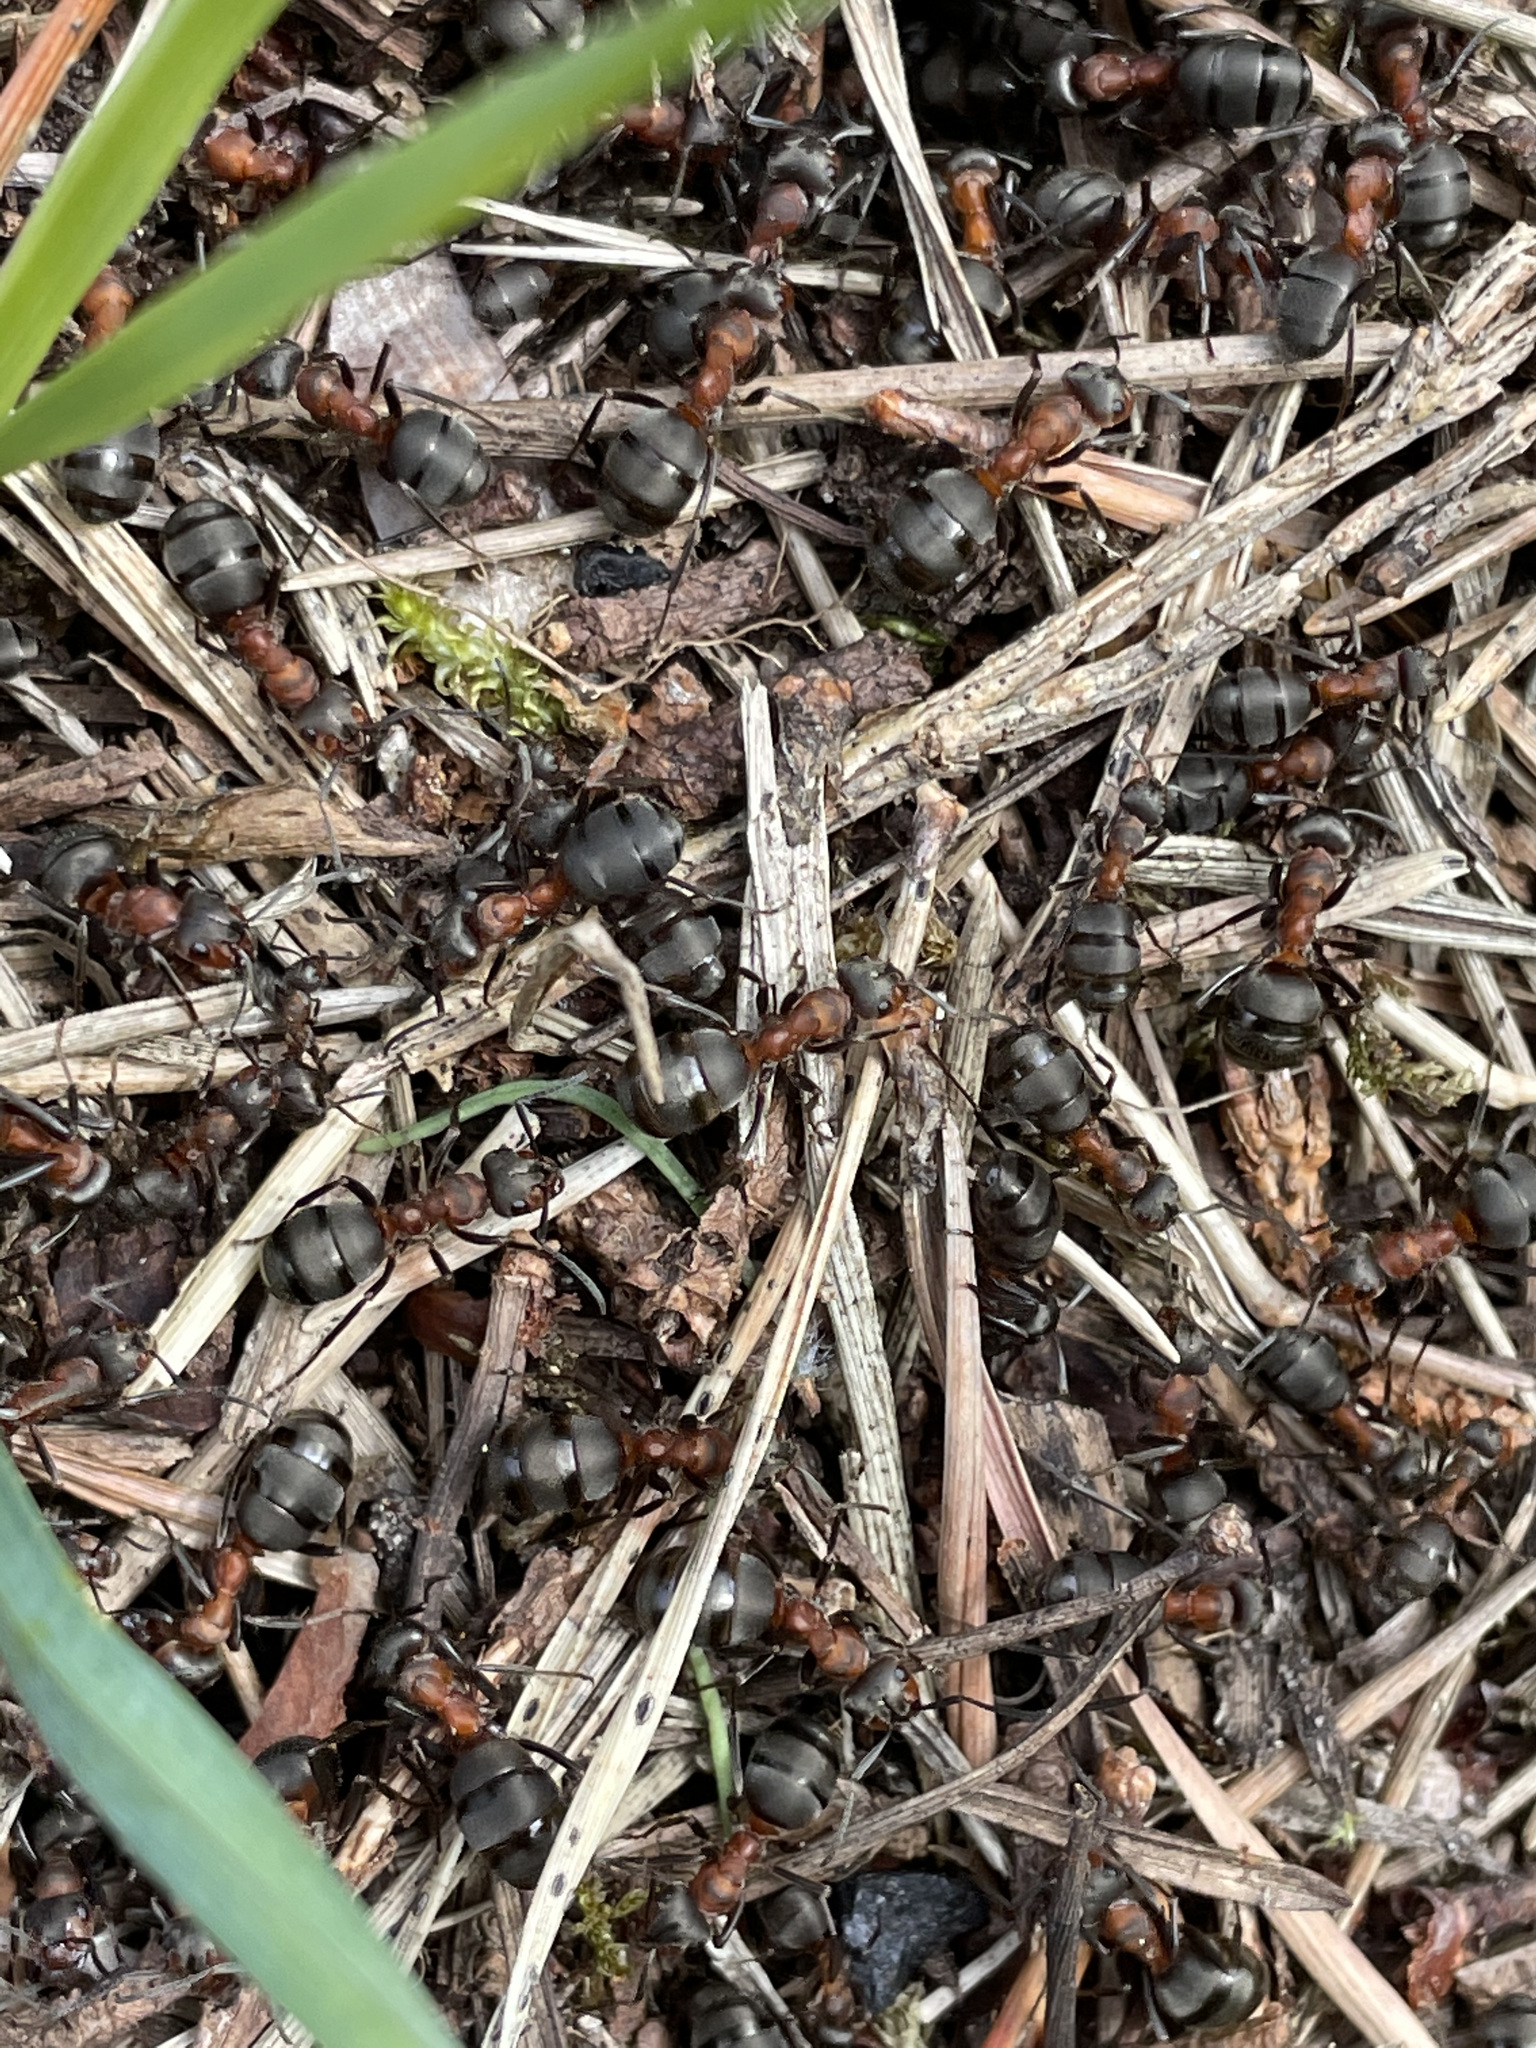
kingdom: Animalia
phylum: Arthropoda
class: Insecta
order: Hymenoptera
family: Formicidae
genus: Formica
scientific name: Formica aquilonia
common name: Scottish wood ant
